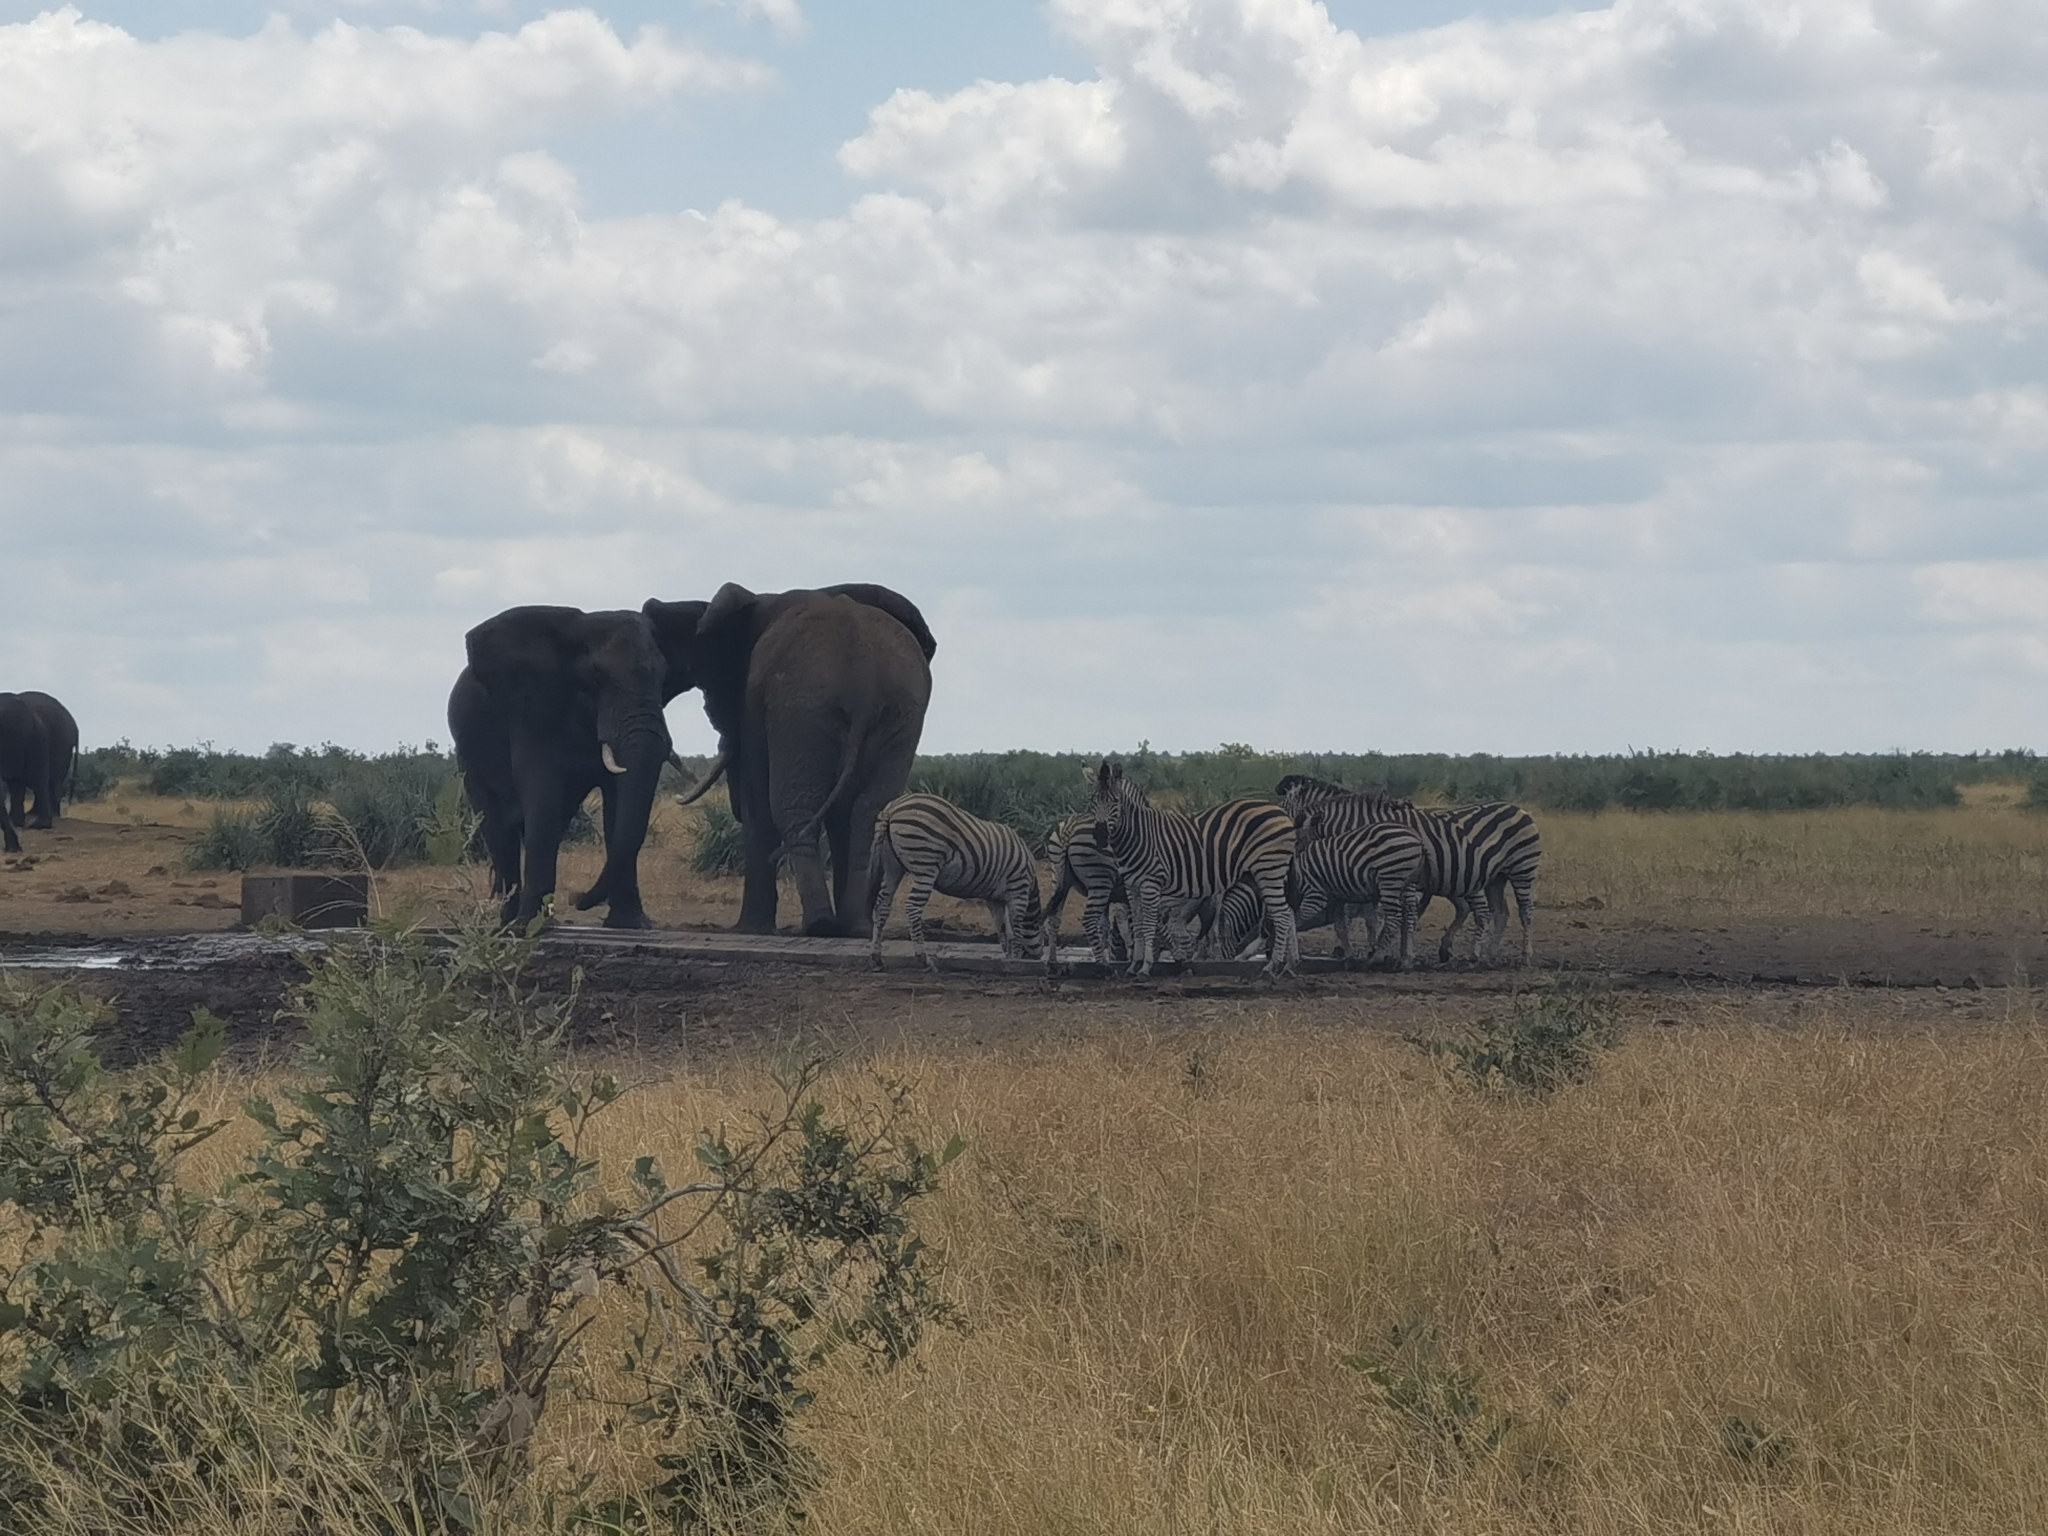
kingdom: Animalia
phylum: Chordata
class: Mammalia
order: Proboscidea
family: Elephantidae
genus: Loxodonta
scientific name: Loxodonta africana
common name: African elephant
